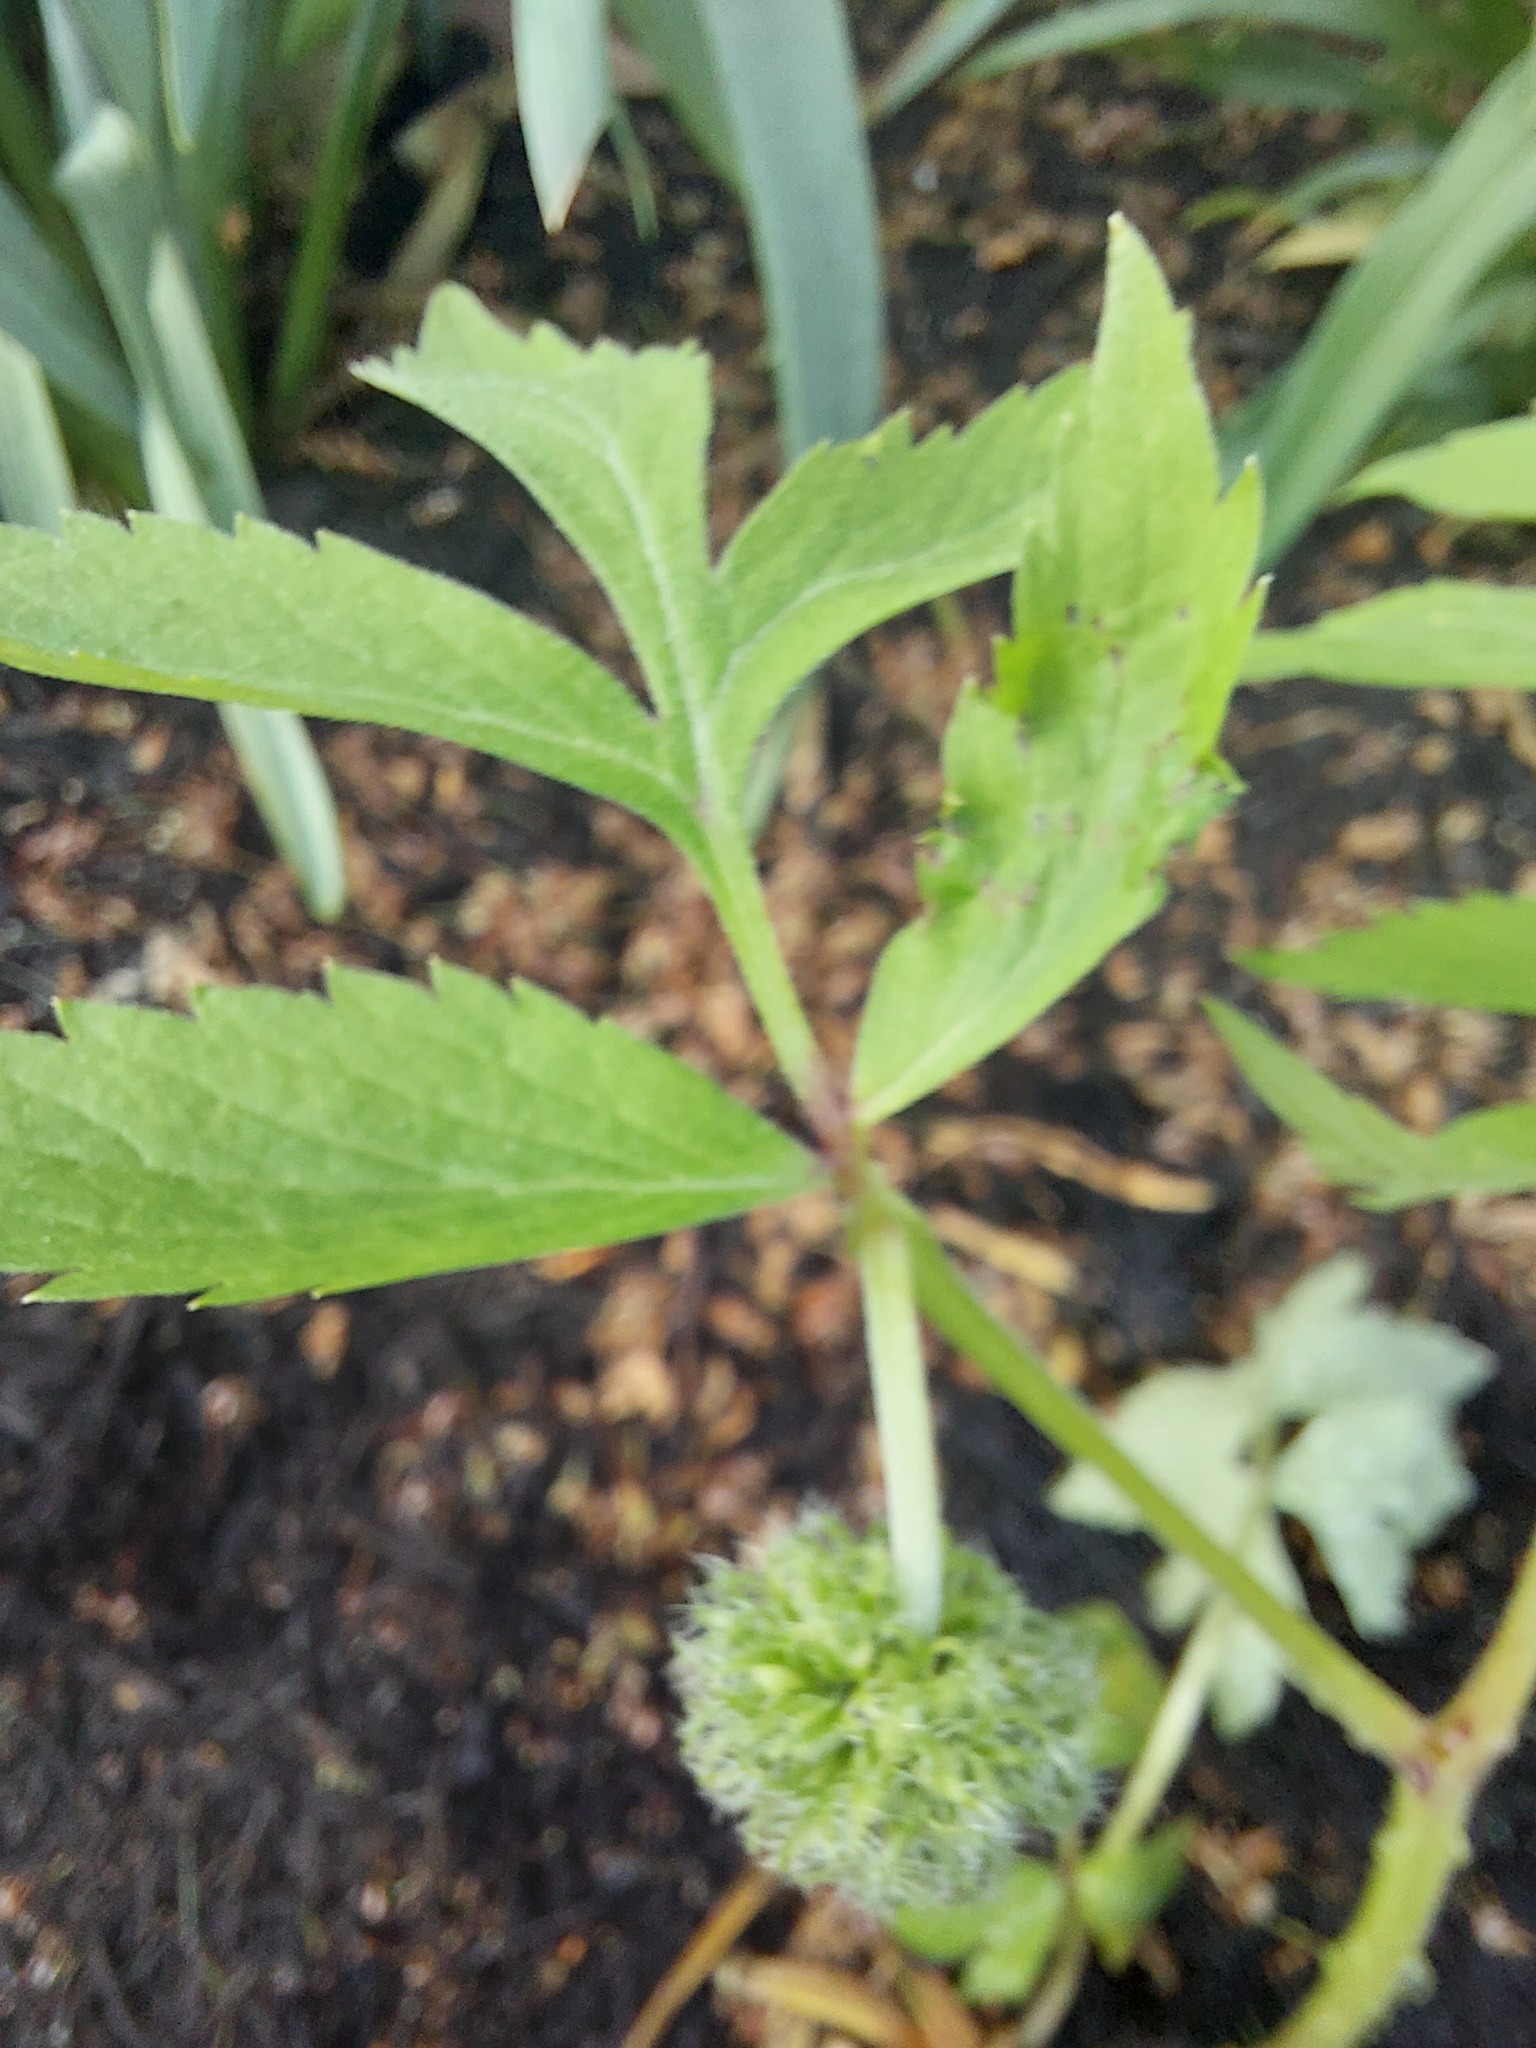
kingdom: Plantae
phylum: Tracheophyta
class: Magnoliopsida
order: Boraginales
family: Hydrophyllaceae
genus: Hydrophyllum
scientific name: Hydrophyllum virginianum
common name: Virginia waterleaf
